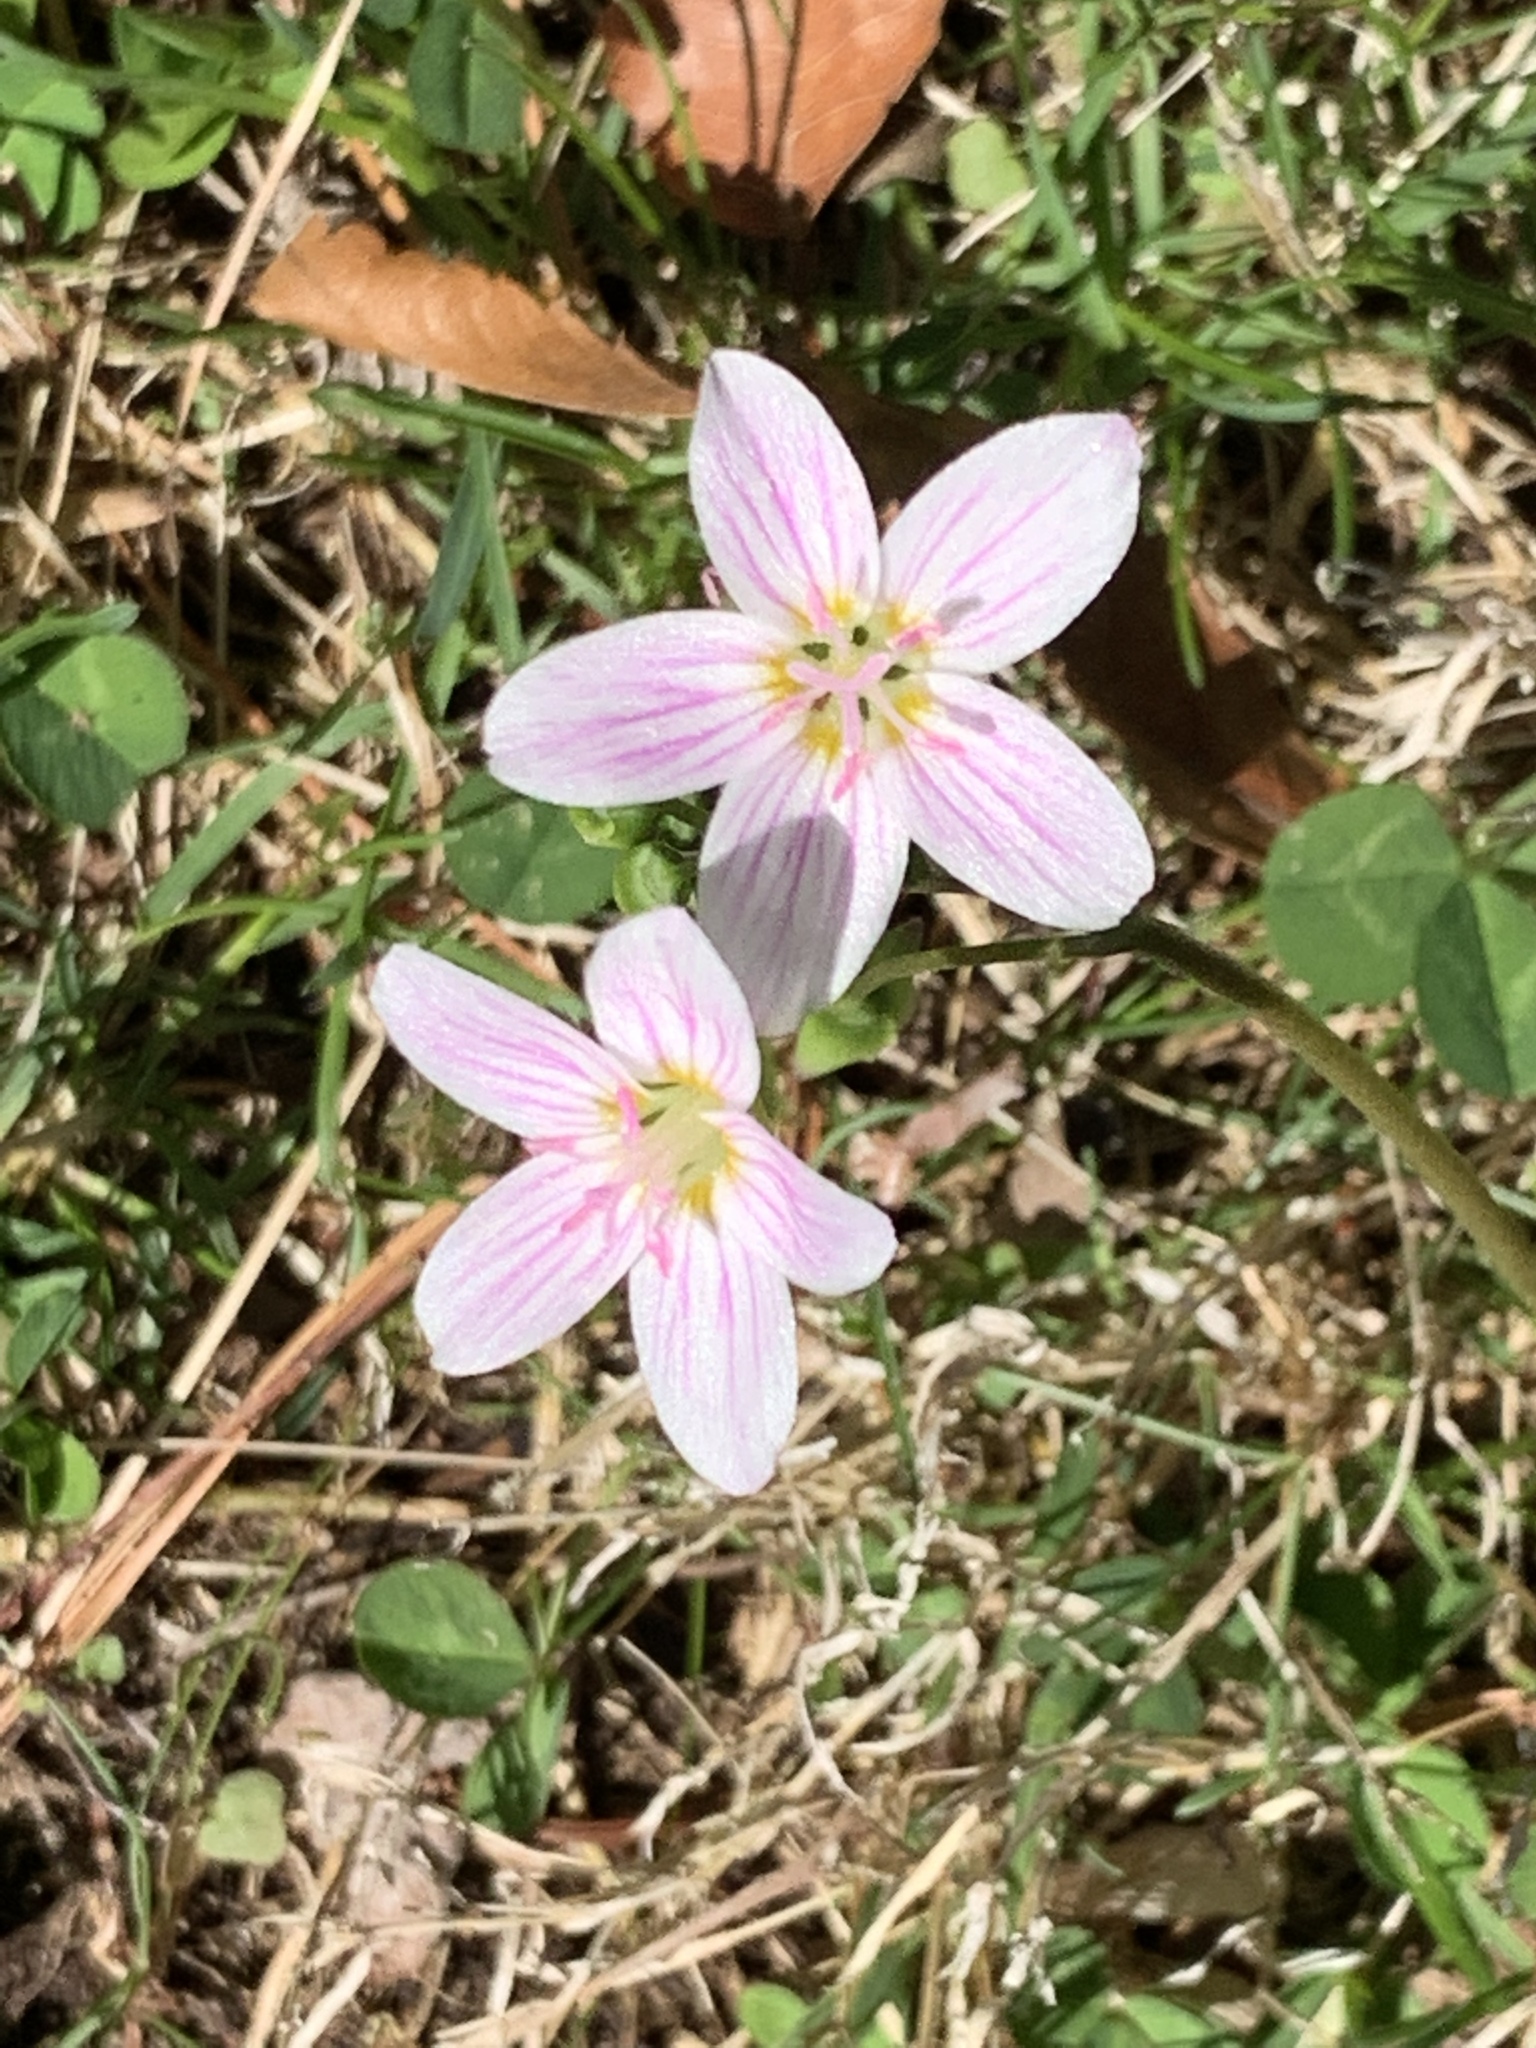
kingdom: Plantae
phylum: Tracheophyta
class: Magnoliopsida
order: Caryophyllales
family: Montiaceae
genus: Claytonia
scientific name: Claytonia virginica
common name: Virginia springbeauty
